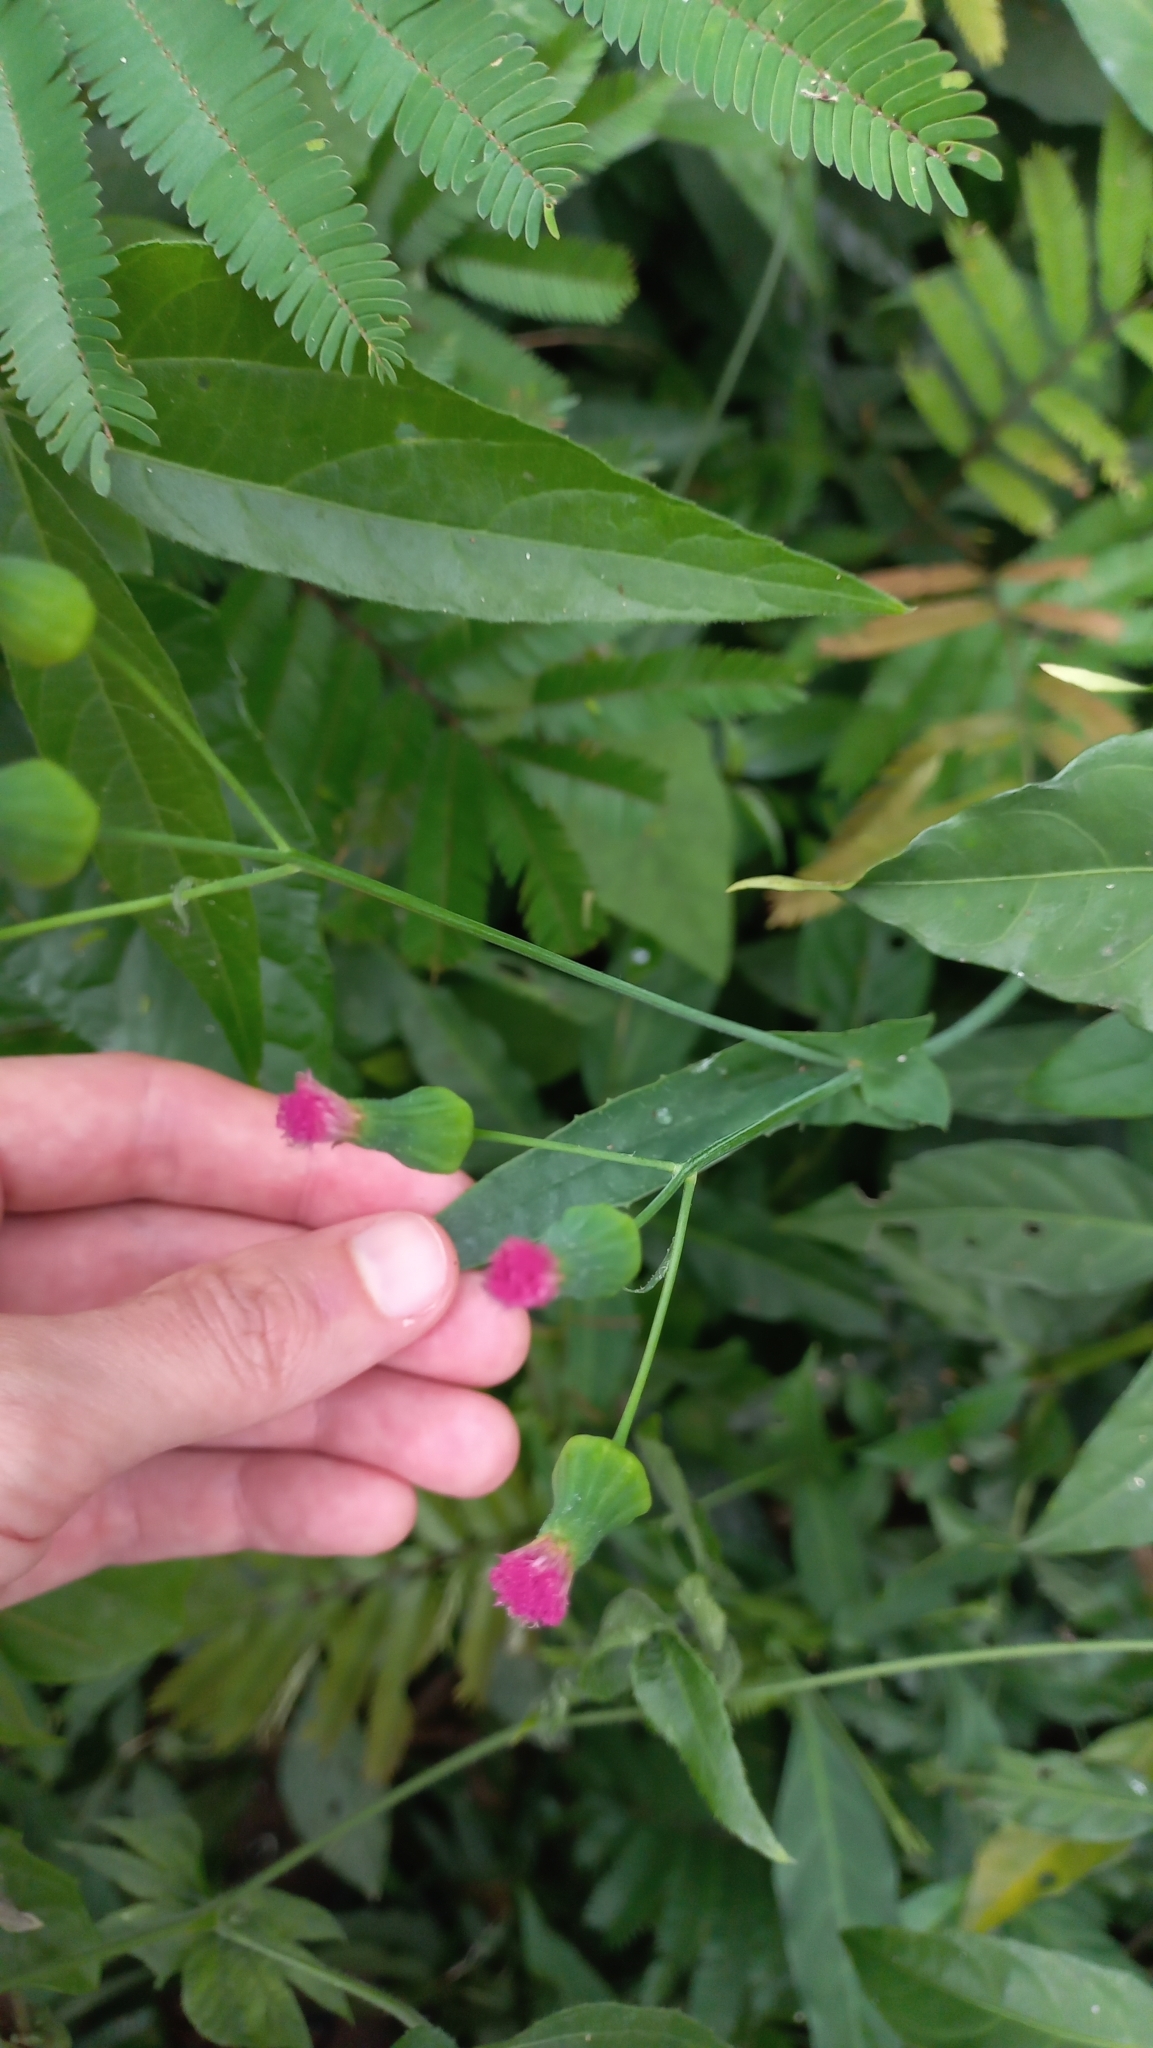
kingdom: Plantae
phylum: Tracheophyta
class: Magnoliopsida
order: Asterales
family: Asteraceae
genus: Emilia
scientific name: Emilia fosbergii
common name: Florida tasselflower
